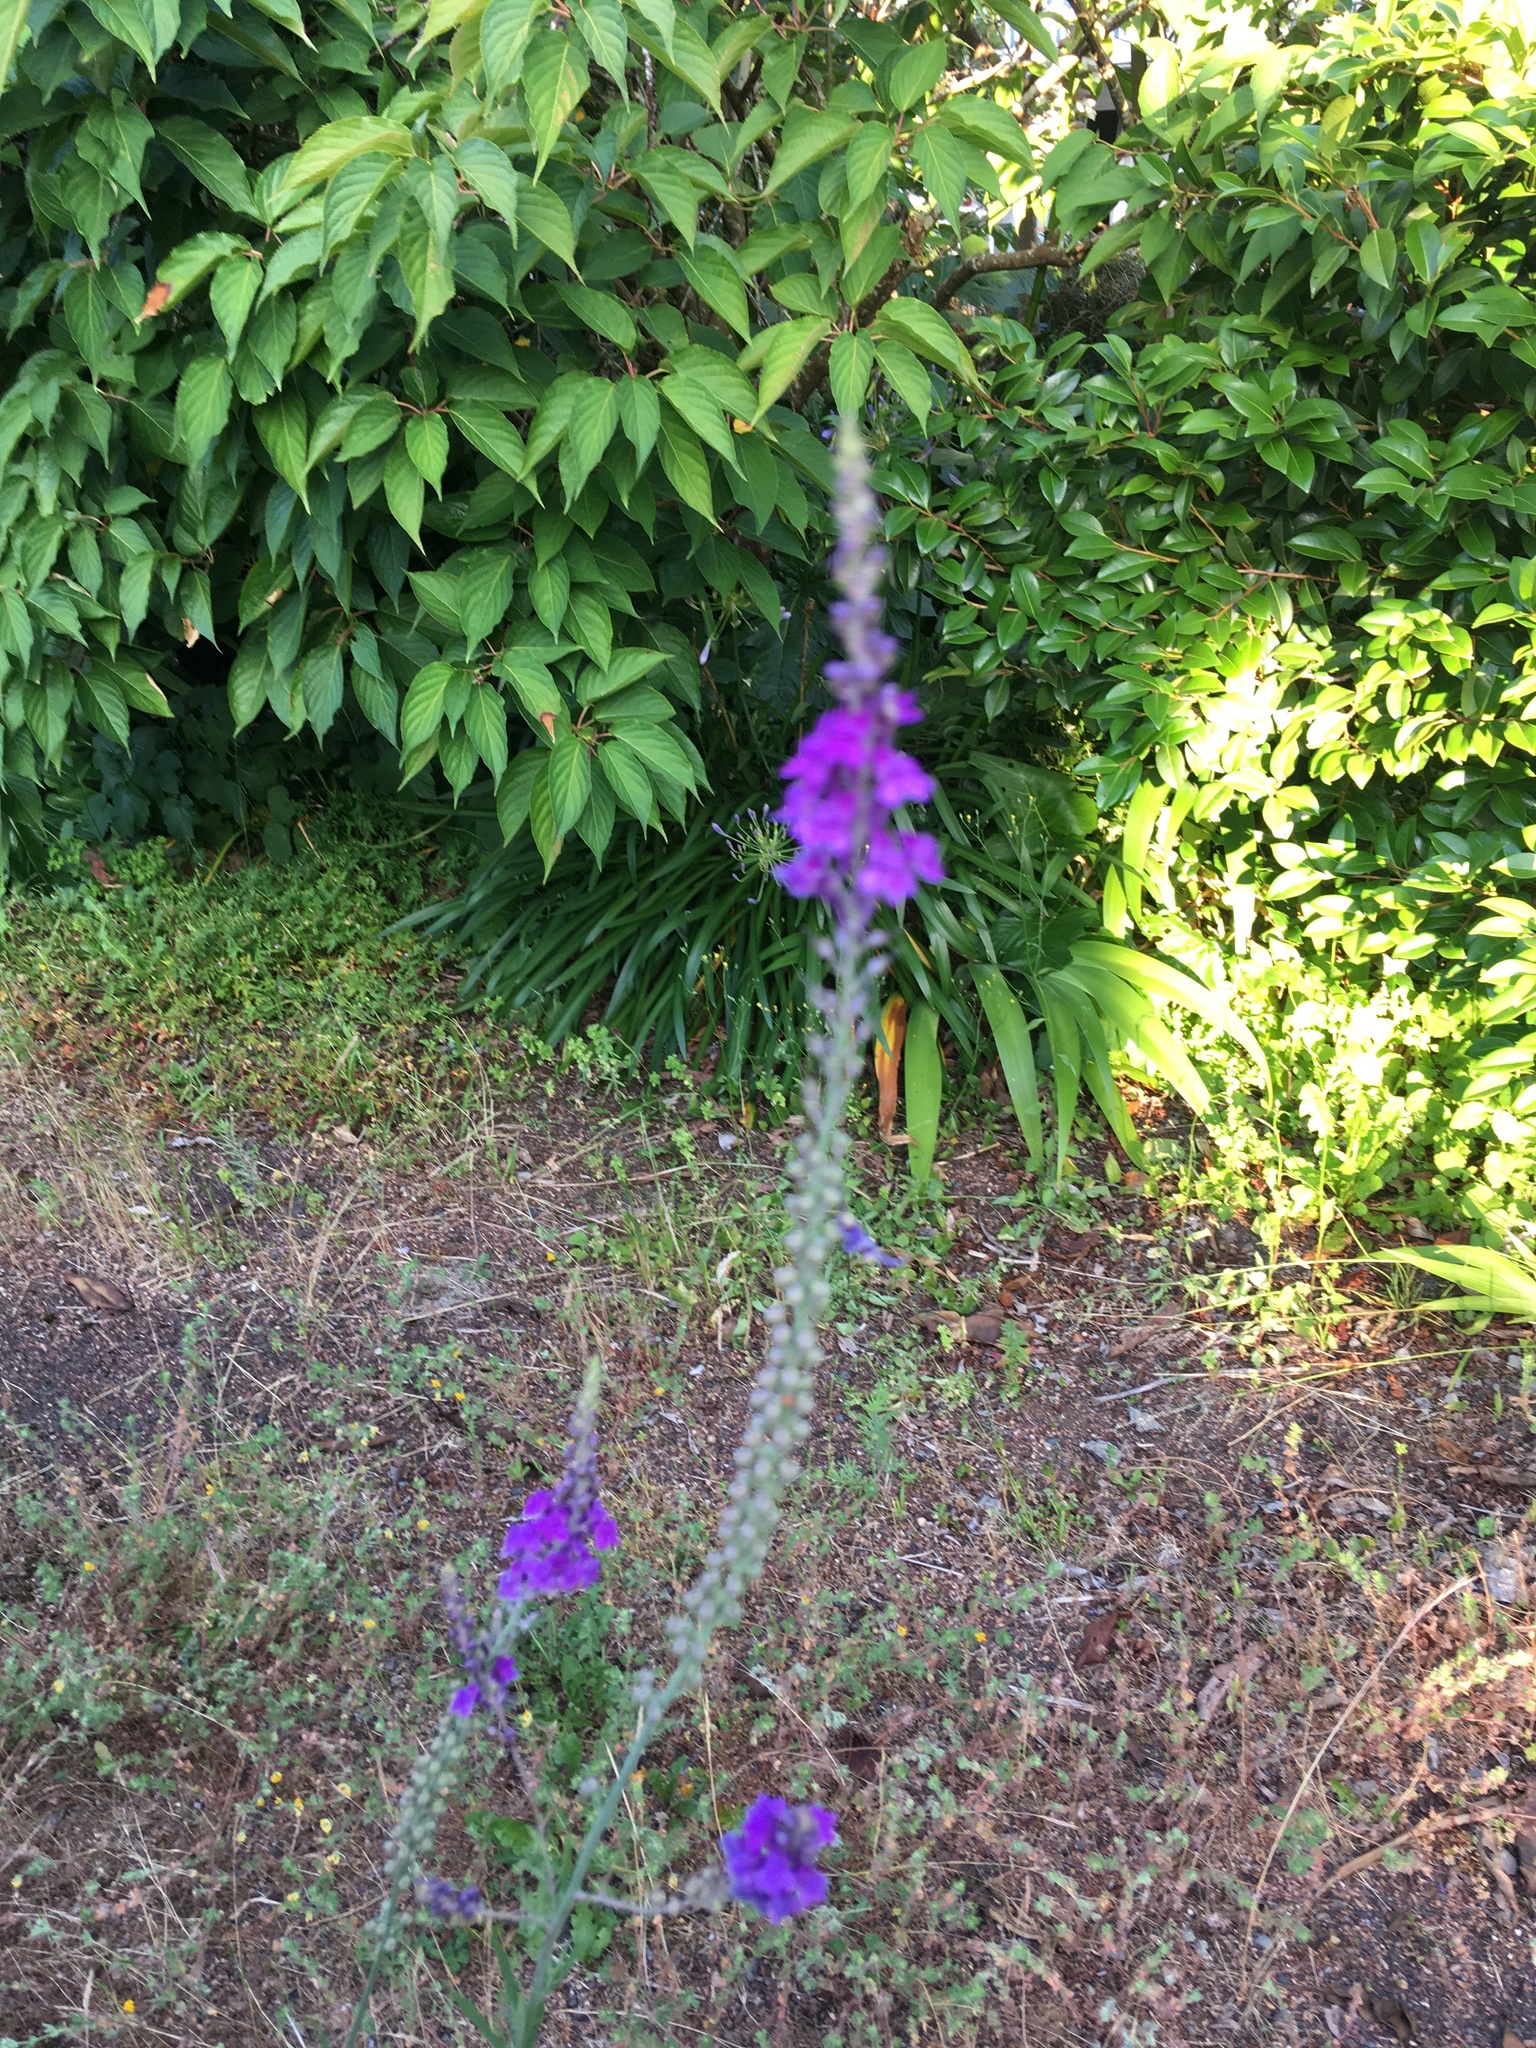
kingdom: Plantae
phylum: Tracheophyta
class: Magnoliopsida
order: Lamiales
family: Plantaginaceae
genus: Linaria
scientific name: Linaria purpurea
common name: Purple toadflax
